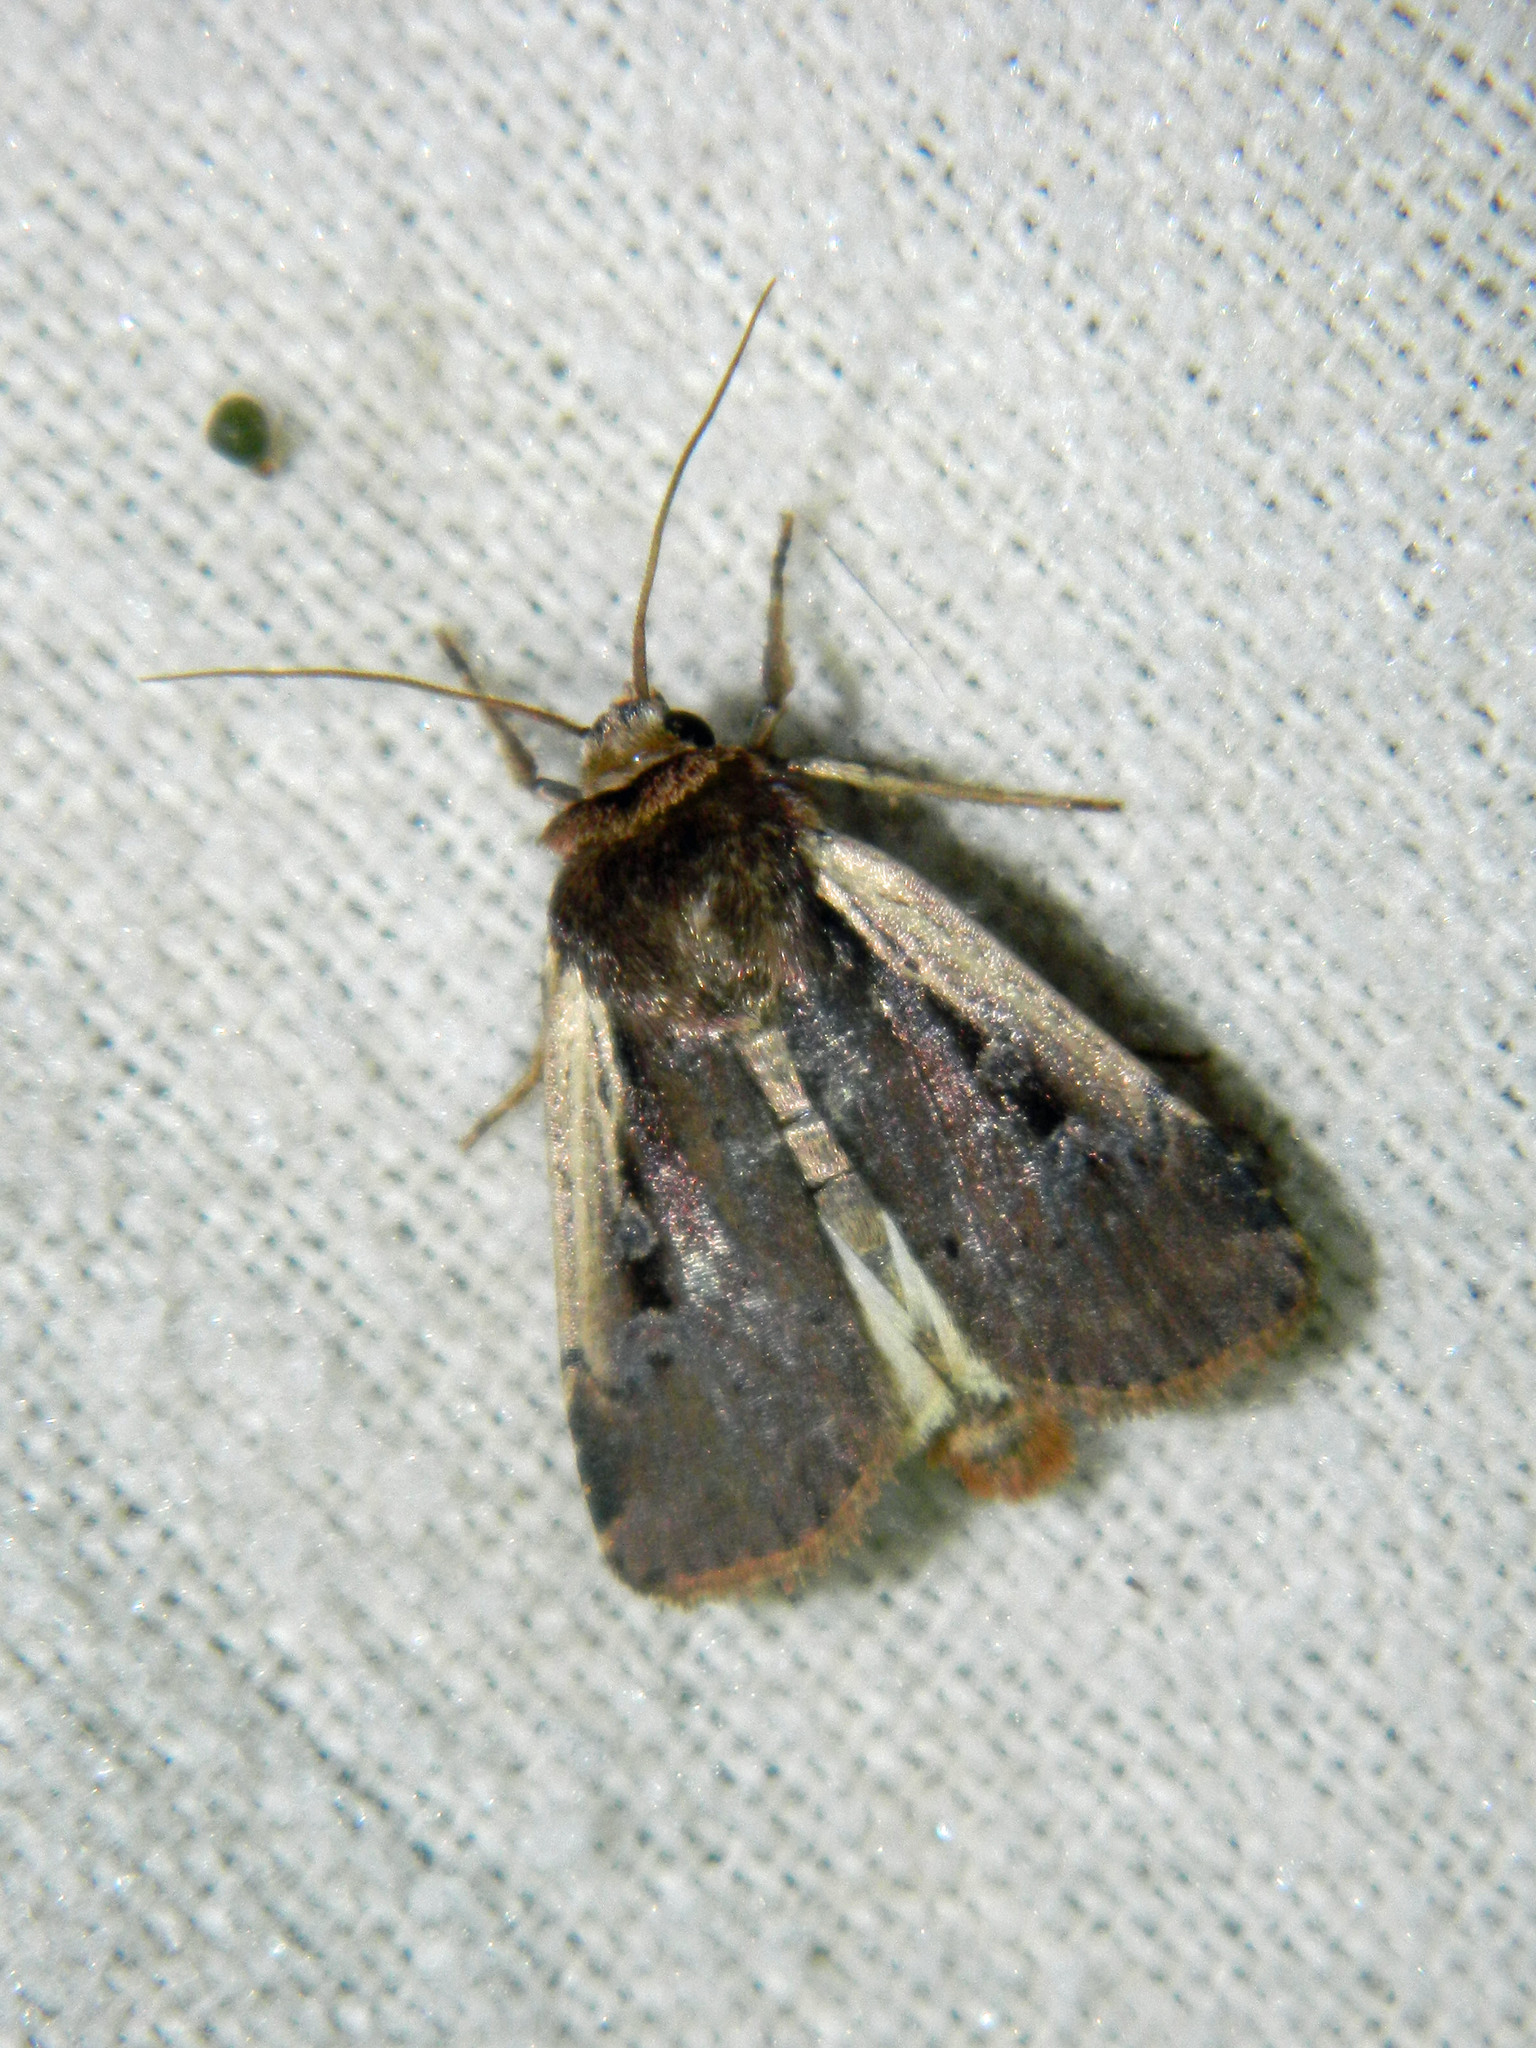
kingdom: Animalia
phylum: Arthropoda
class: Insecta
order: Lepidoptera
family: Noctuidae
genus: Ochropleura
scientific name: Ochropleura implecta
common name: Flame-shouldered dart
